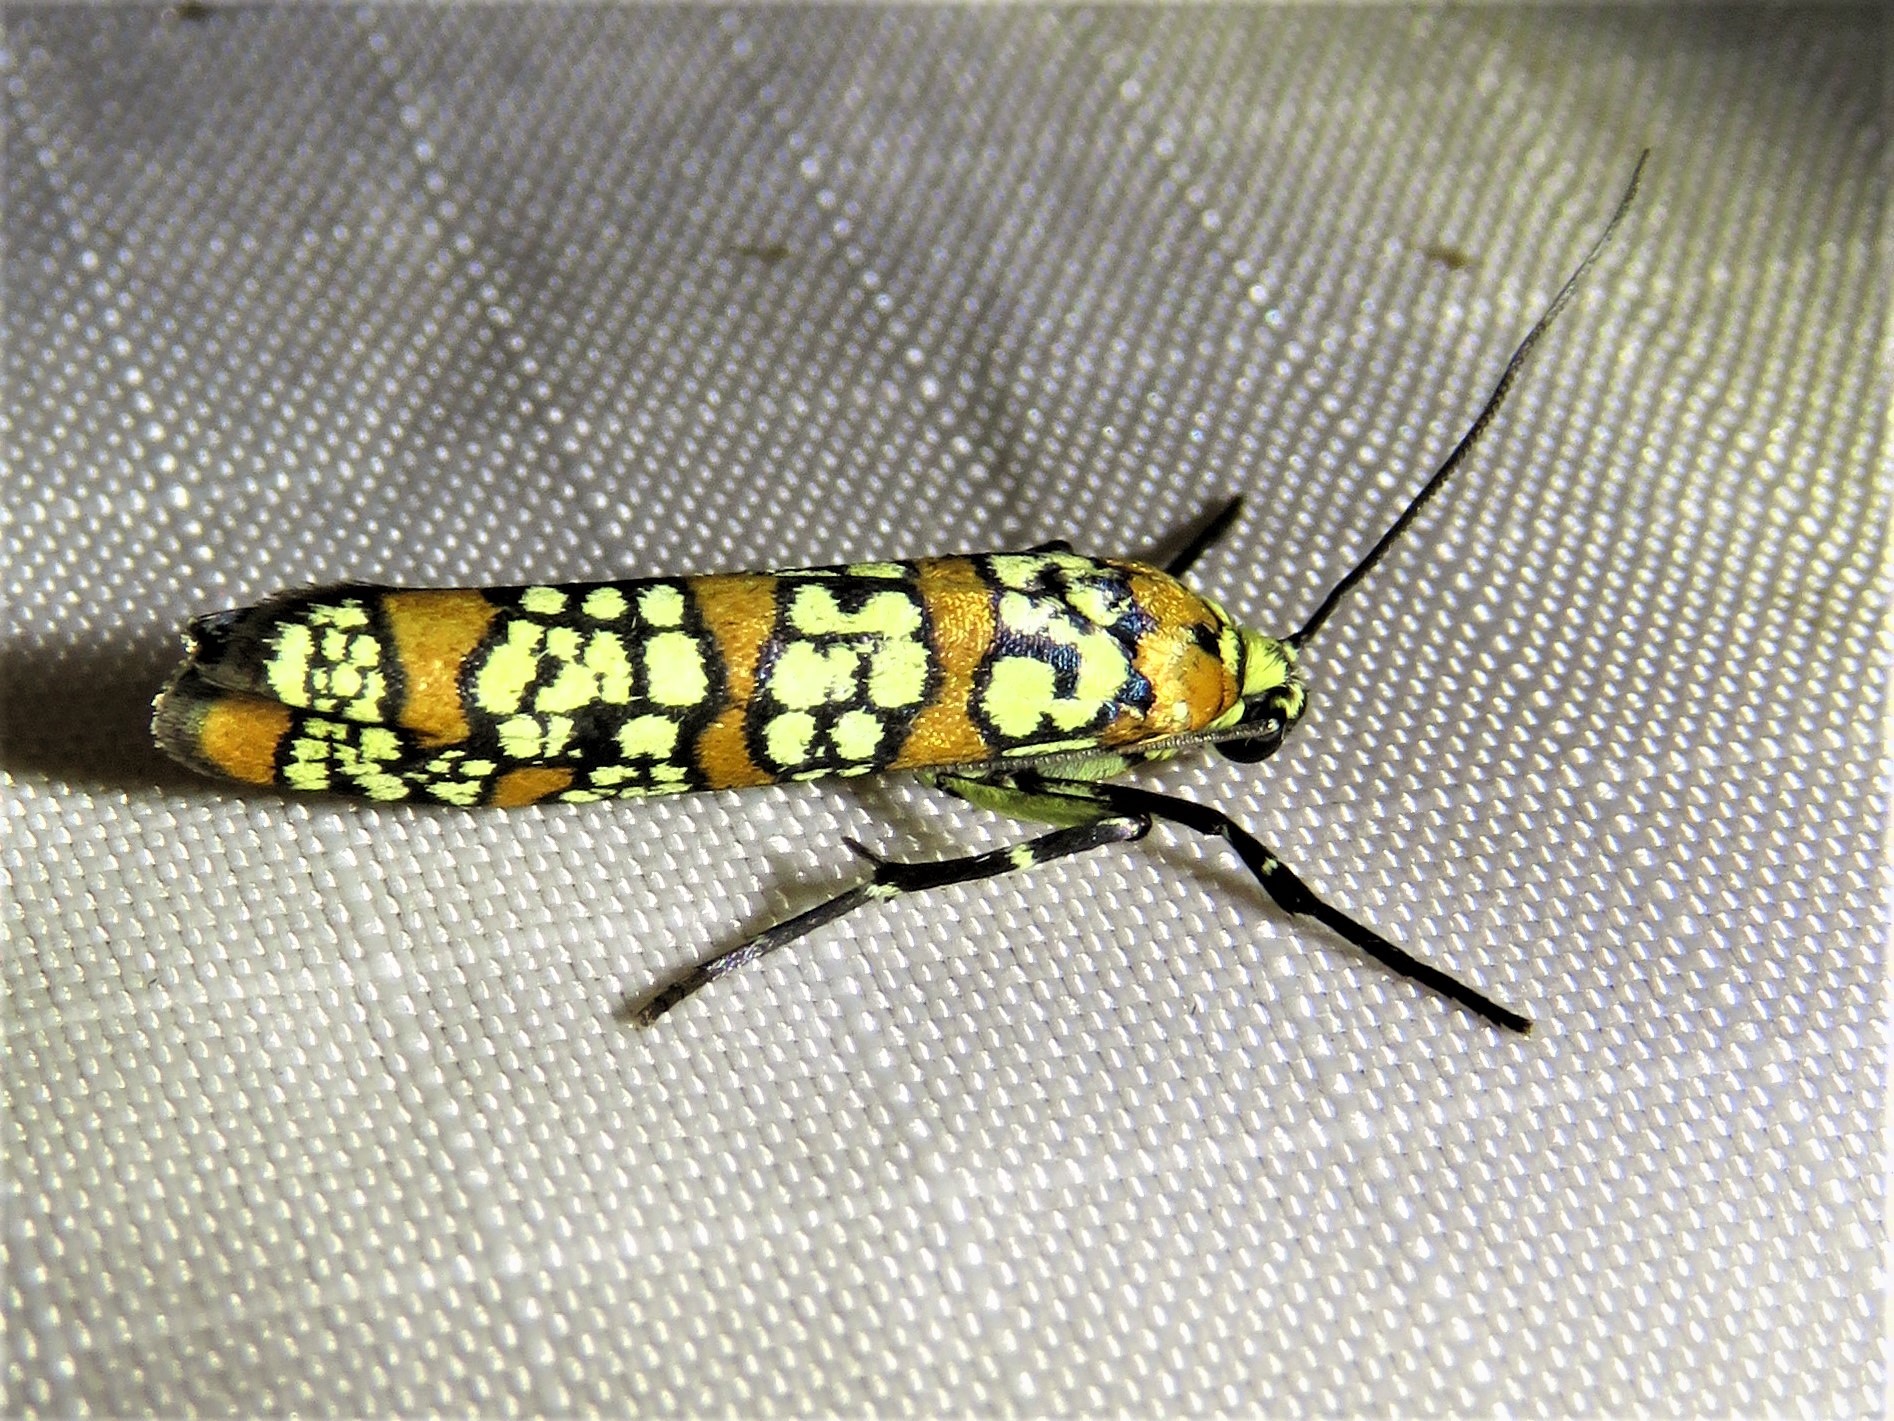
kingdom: Animalia
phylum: Arthropoda
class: Insecta
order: Lepidoptera
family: Attevidae
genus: Atteva
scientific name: Atteva punctella
